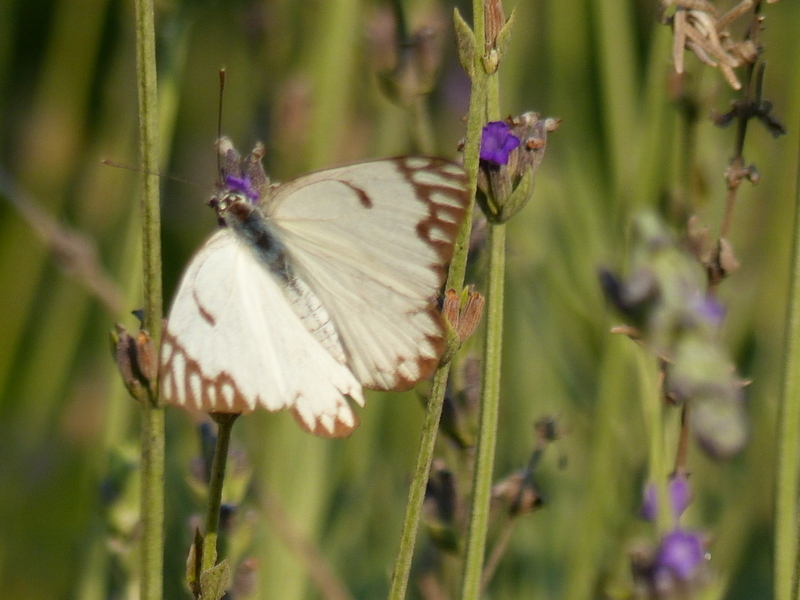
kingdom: Animalia
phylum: Arthropoda
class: Insecta
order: Lepidoptera
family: Pieridae
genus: Belenois
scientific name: Belenois aurota
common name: Brown-veined white
